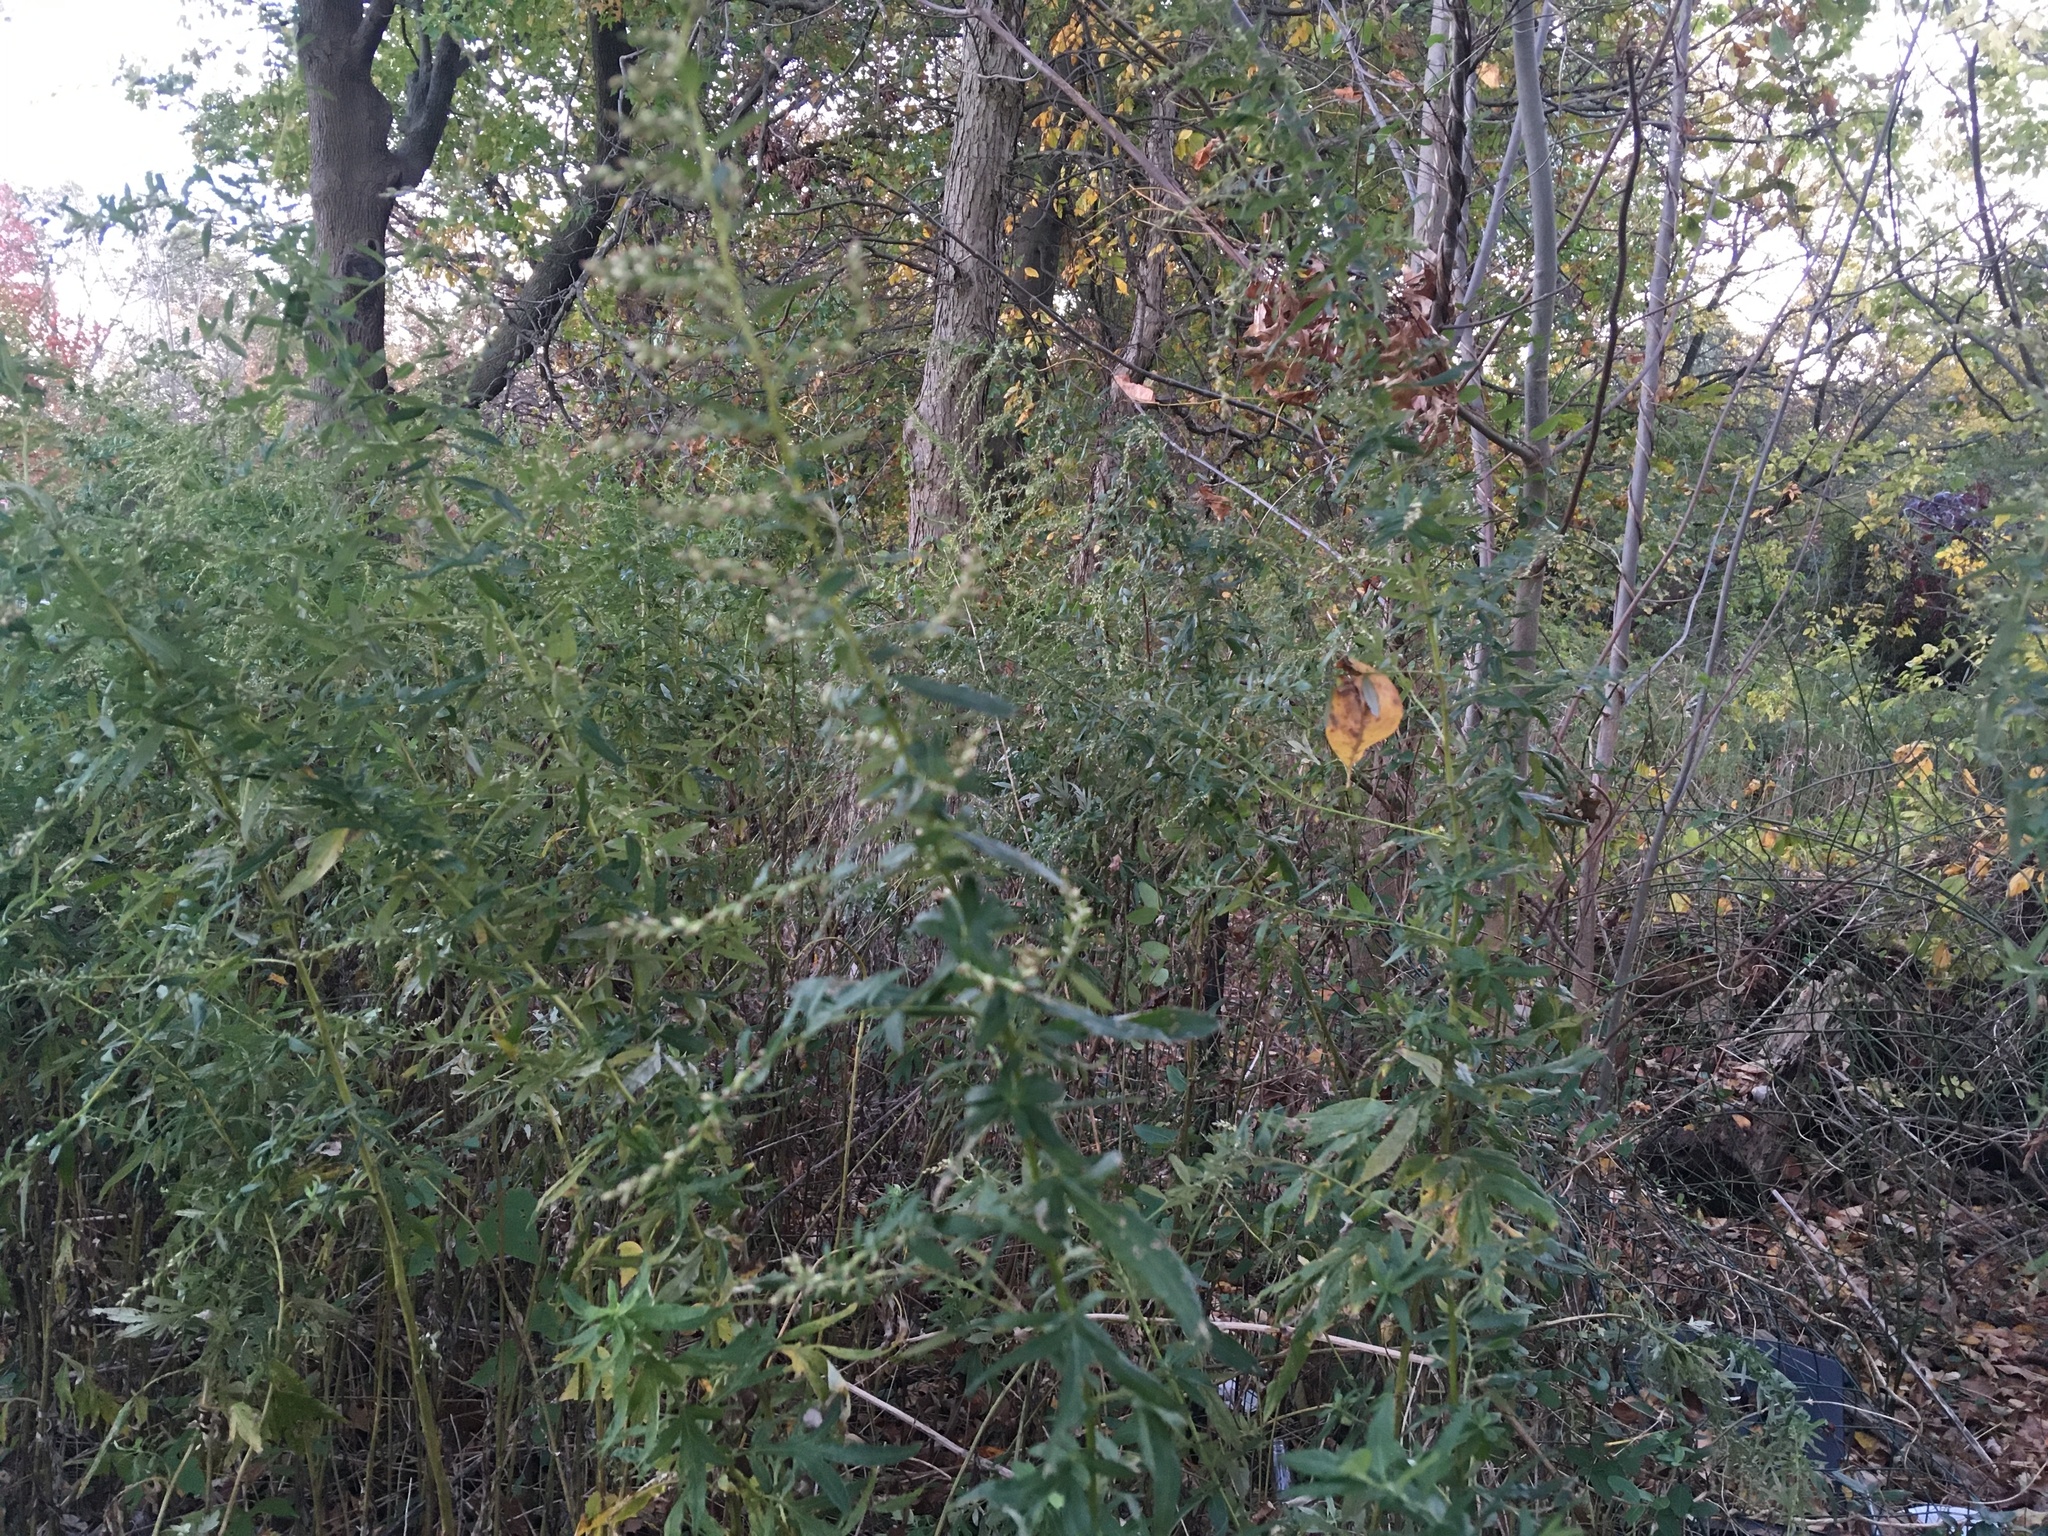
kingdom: Plantae
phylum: Tracheophyta
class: Magnoliopsida
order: Asterales
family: Asteraceae
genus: Artemisia
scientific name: Artemisia vulgaris
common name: Mugwort
